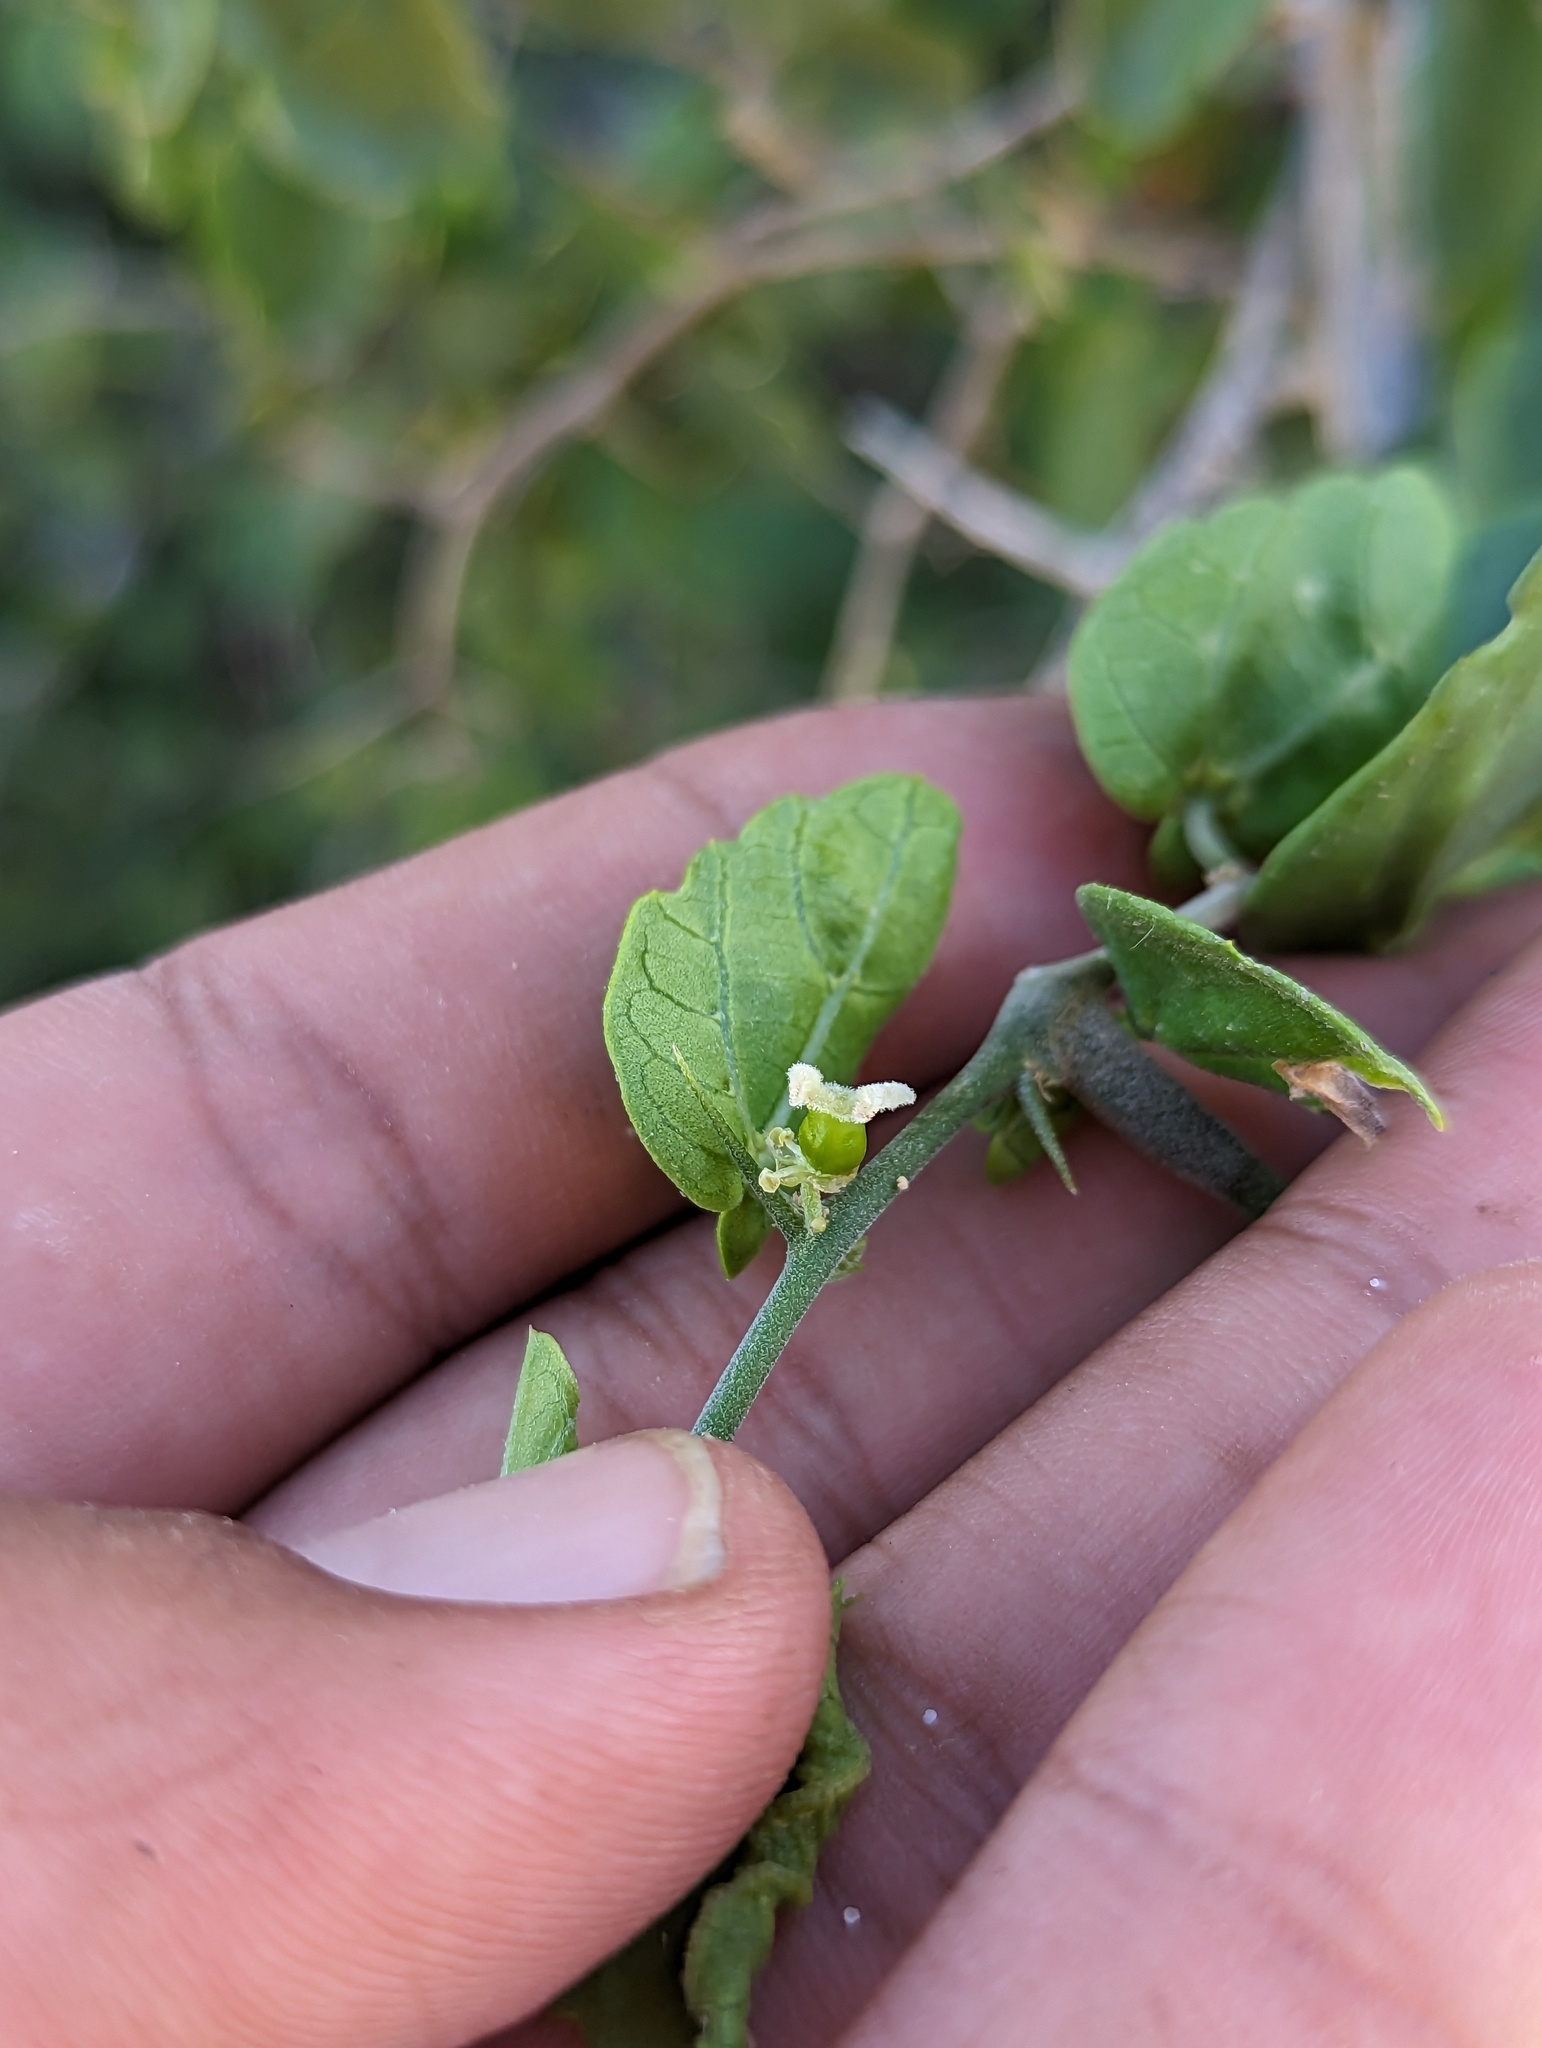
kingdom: Plantae
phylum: Tracheophyta
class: Magnoliopsida
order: Rosales
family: Cannabaceae
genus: Celtis
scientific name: Celtis pallida
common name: Desert hackberry
